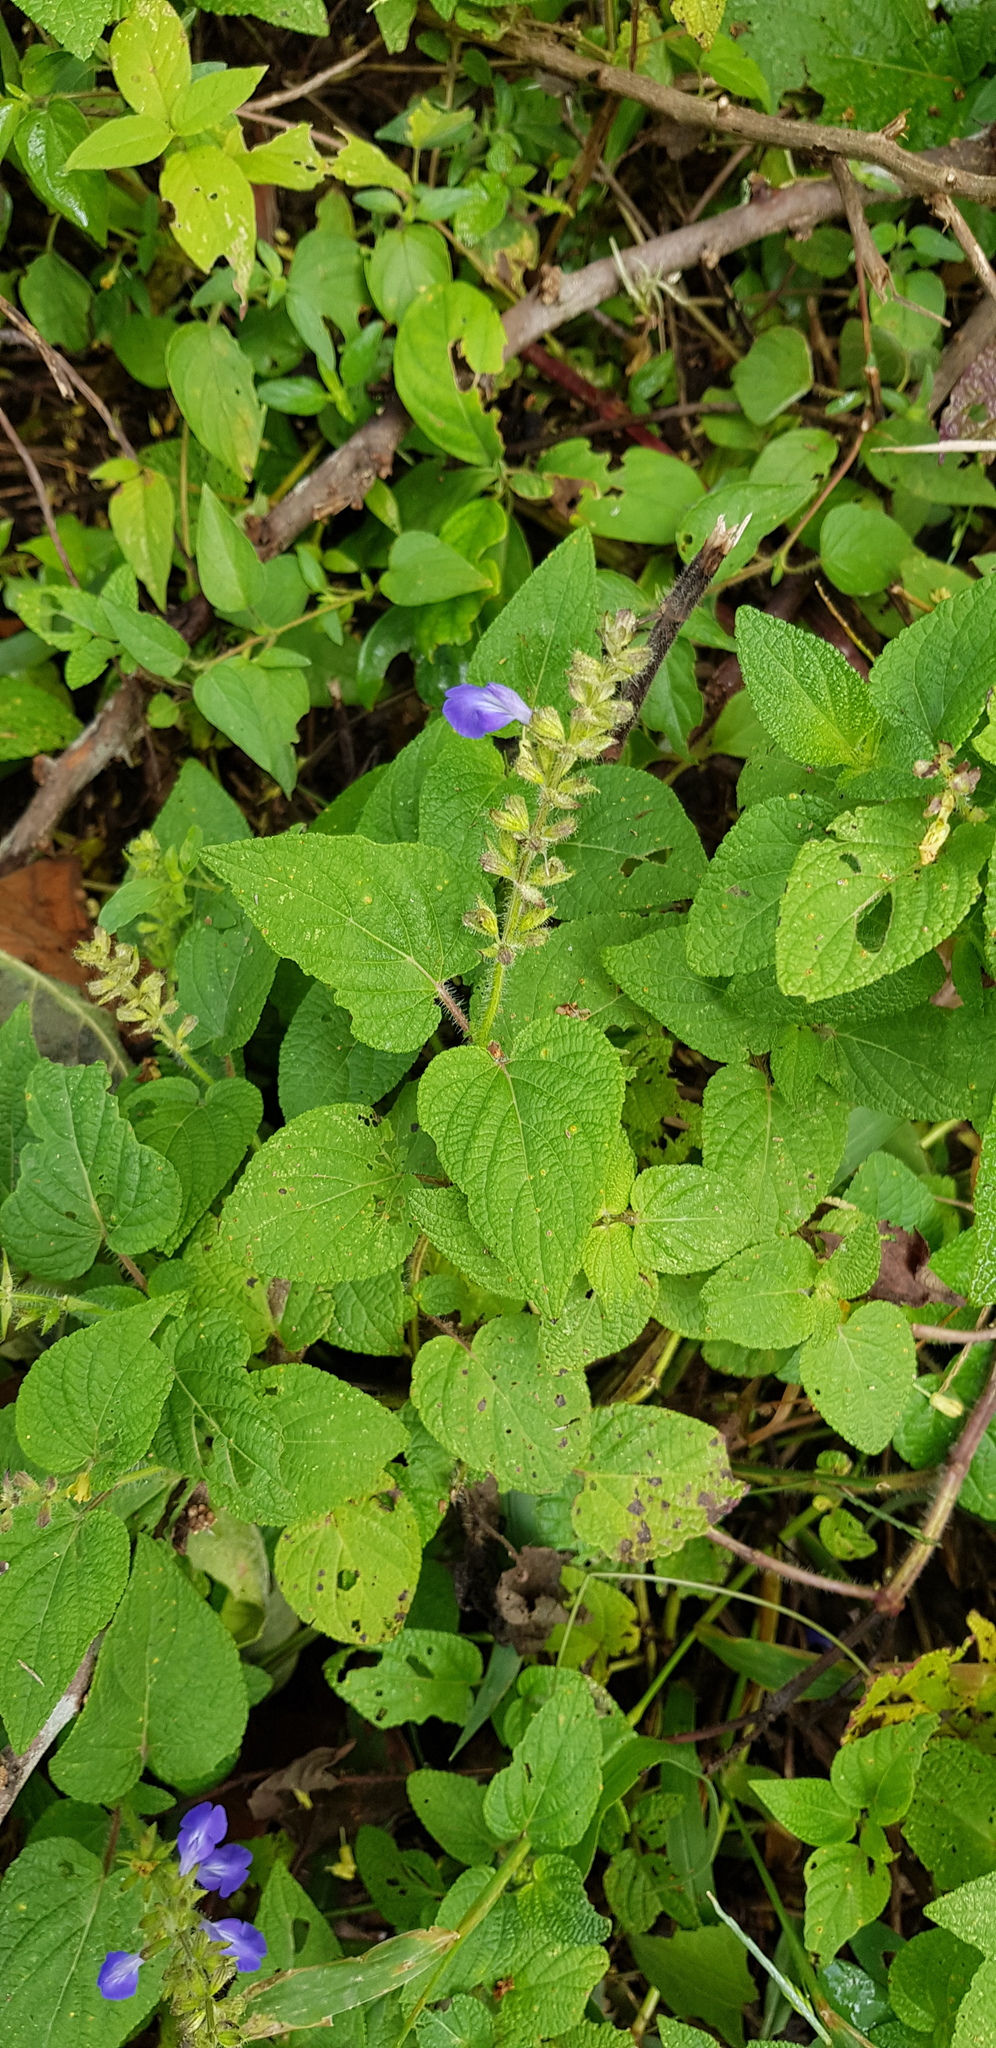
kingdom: Plantae
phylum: Tracheophyta
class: Magnoliopsida
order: Lamiales
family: Lamiaceae
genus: Salvia
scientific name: Salvia circinnata
